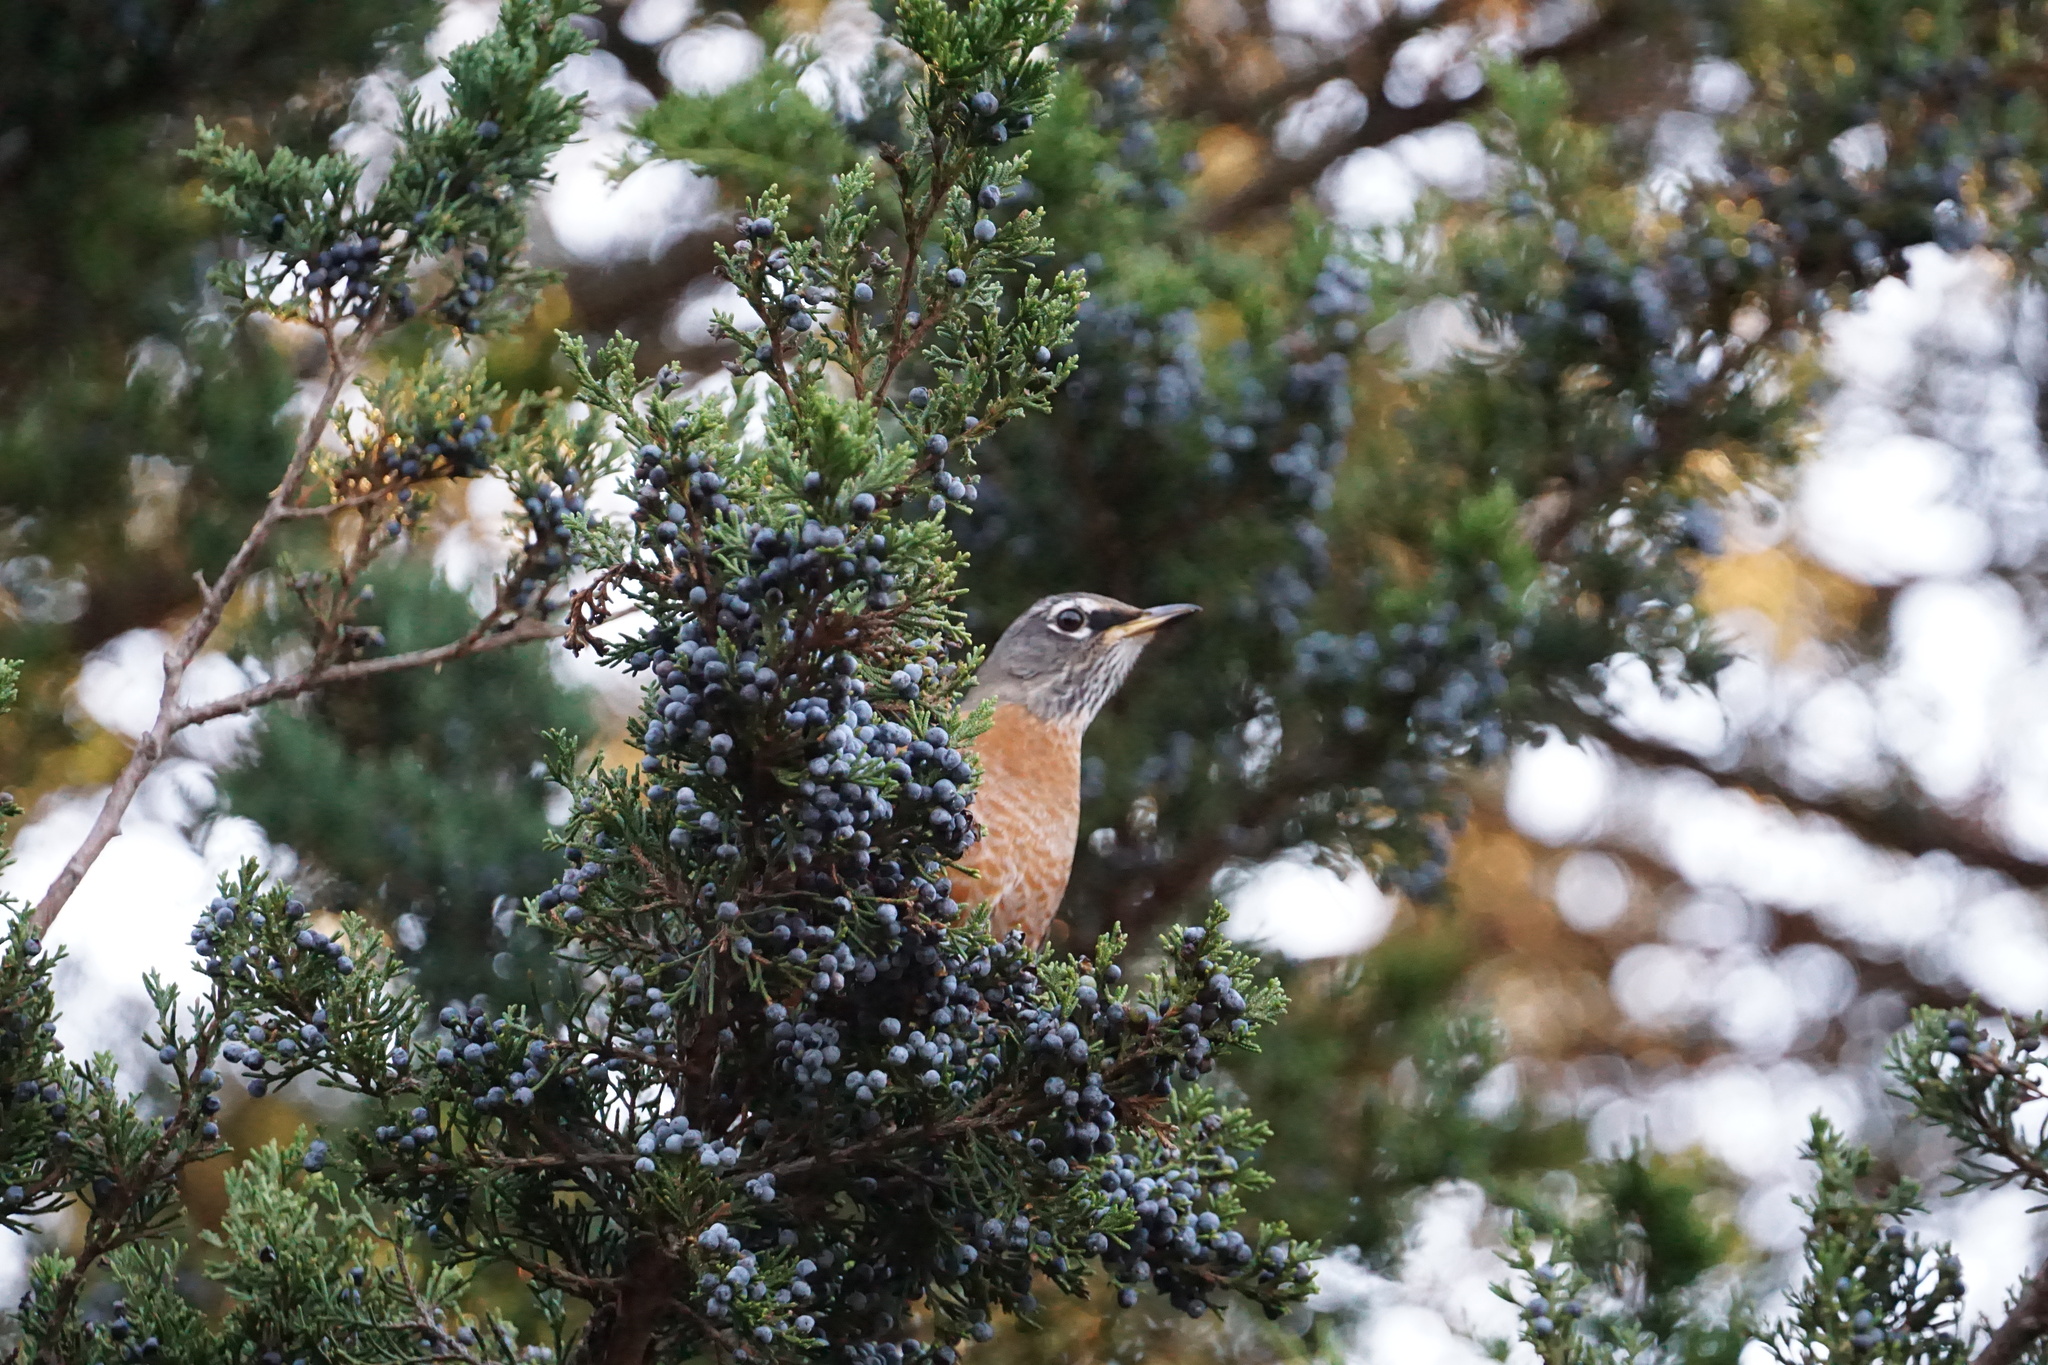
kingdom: Animalia
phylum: Chordata
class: Aves
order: Passeriformes
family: Turdidae
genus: Turdus
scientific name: Turdus migratorius
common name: American robin
